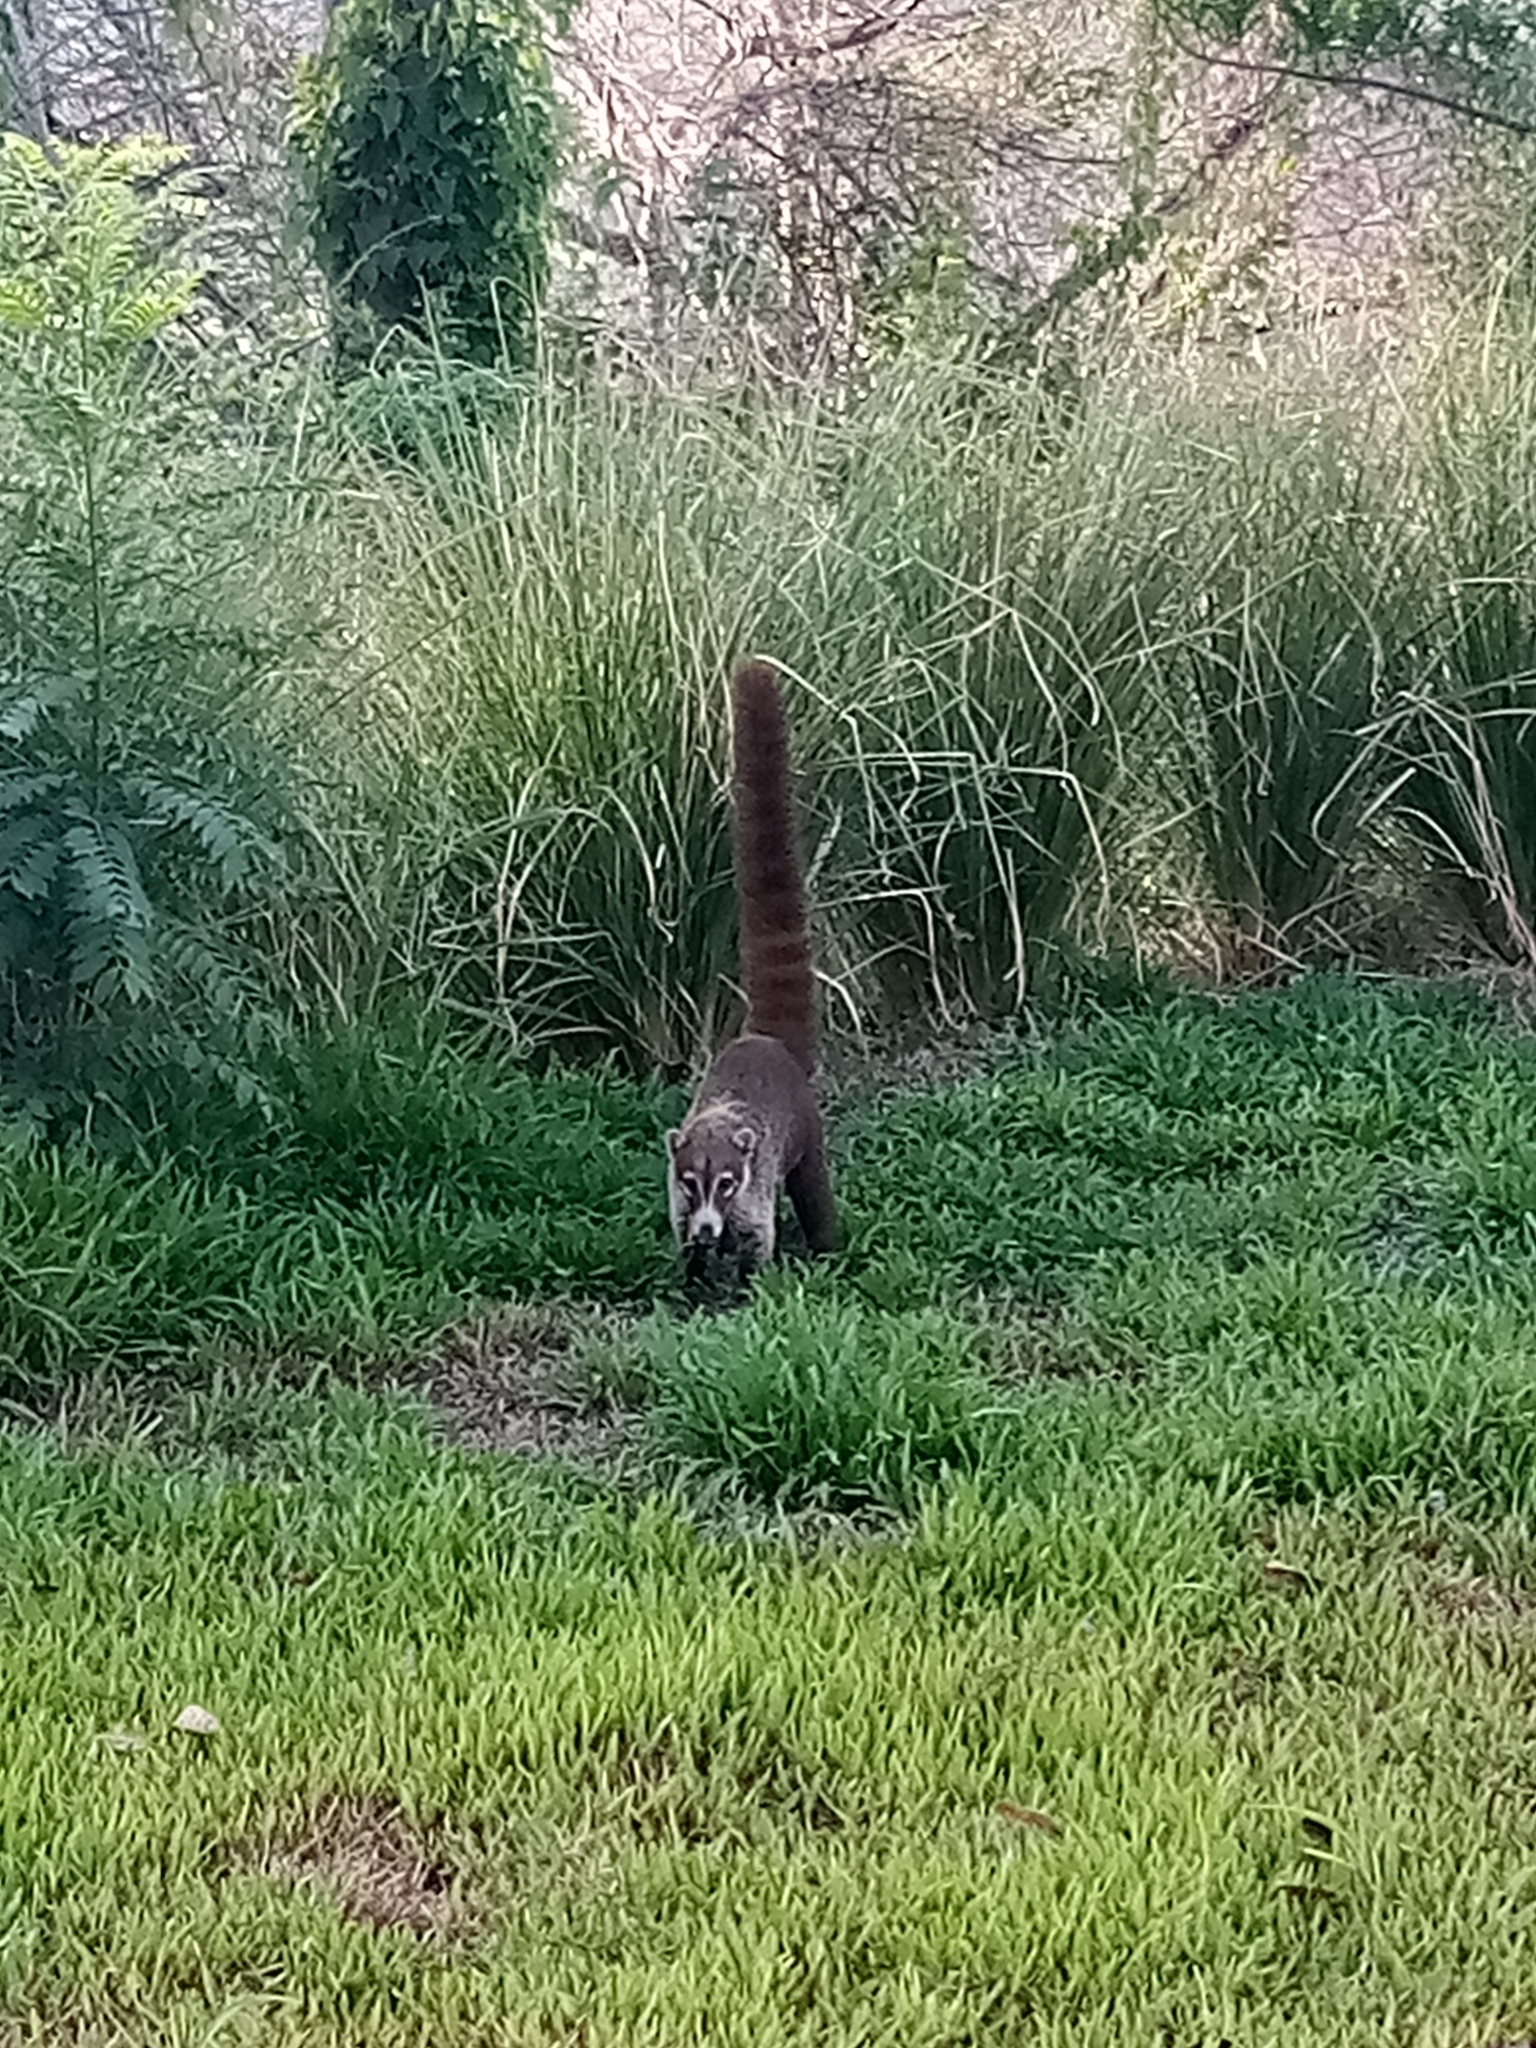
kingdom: Animalia
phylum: Chordata
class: Mammalia
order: Carnivora
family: Procyonidae
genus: Nasua
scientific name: Nasua narica
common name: White-nosed coati
